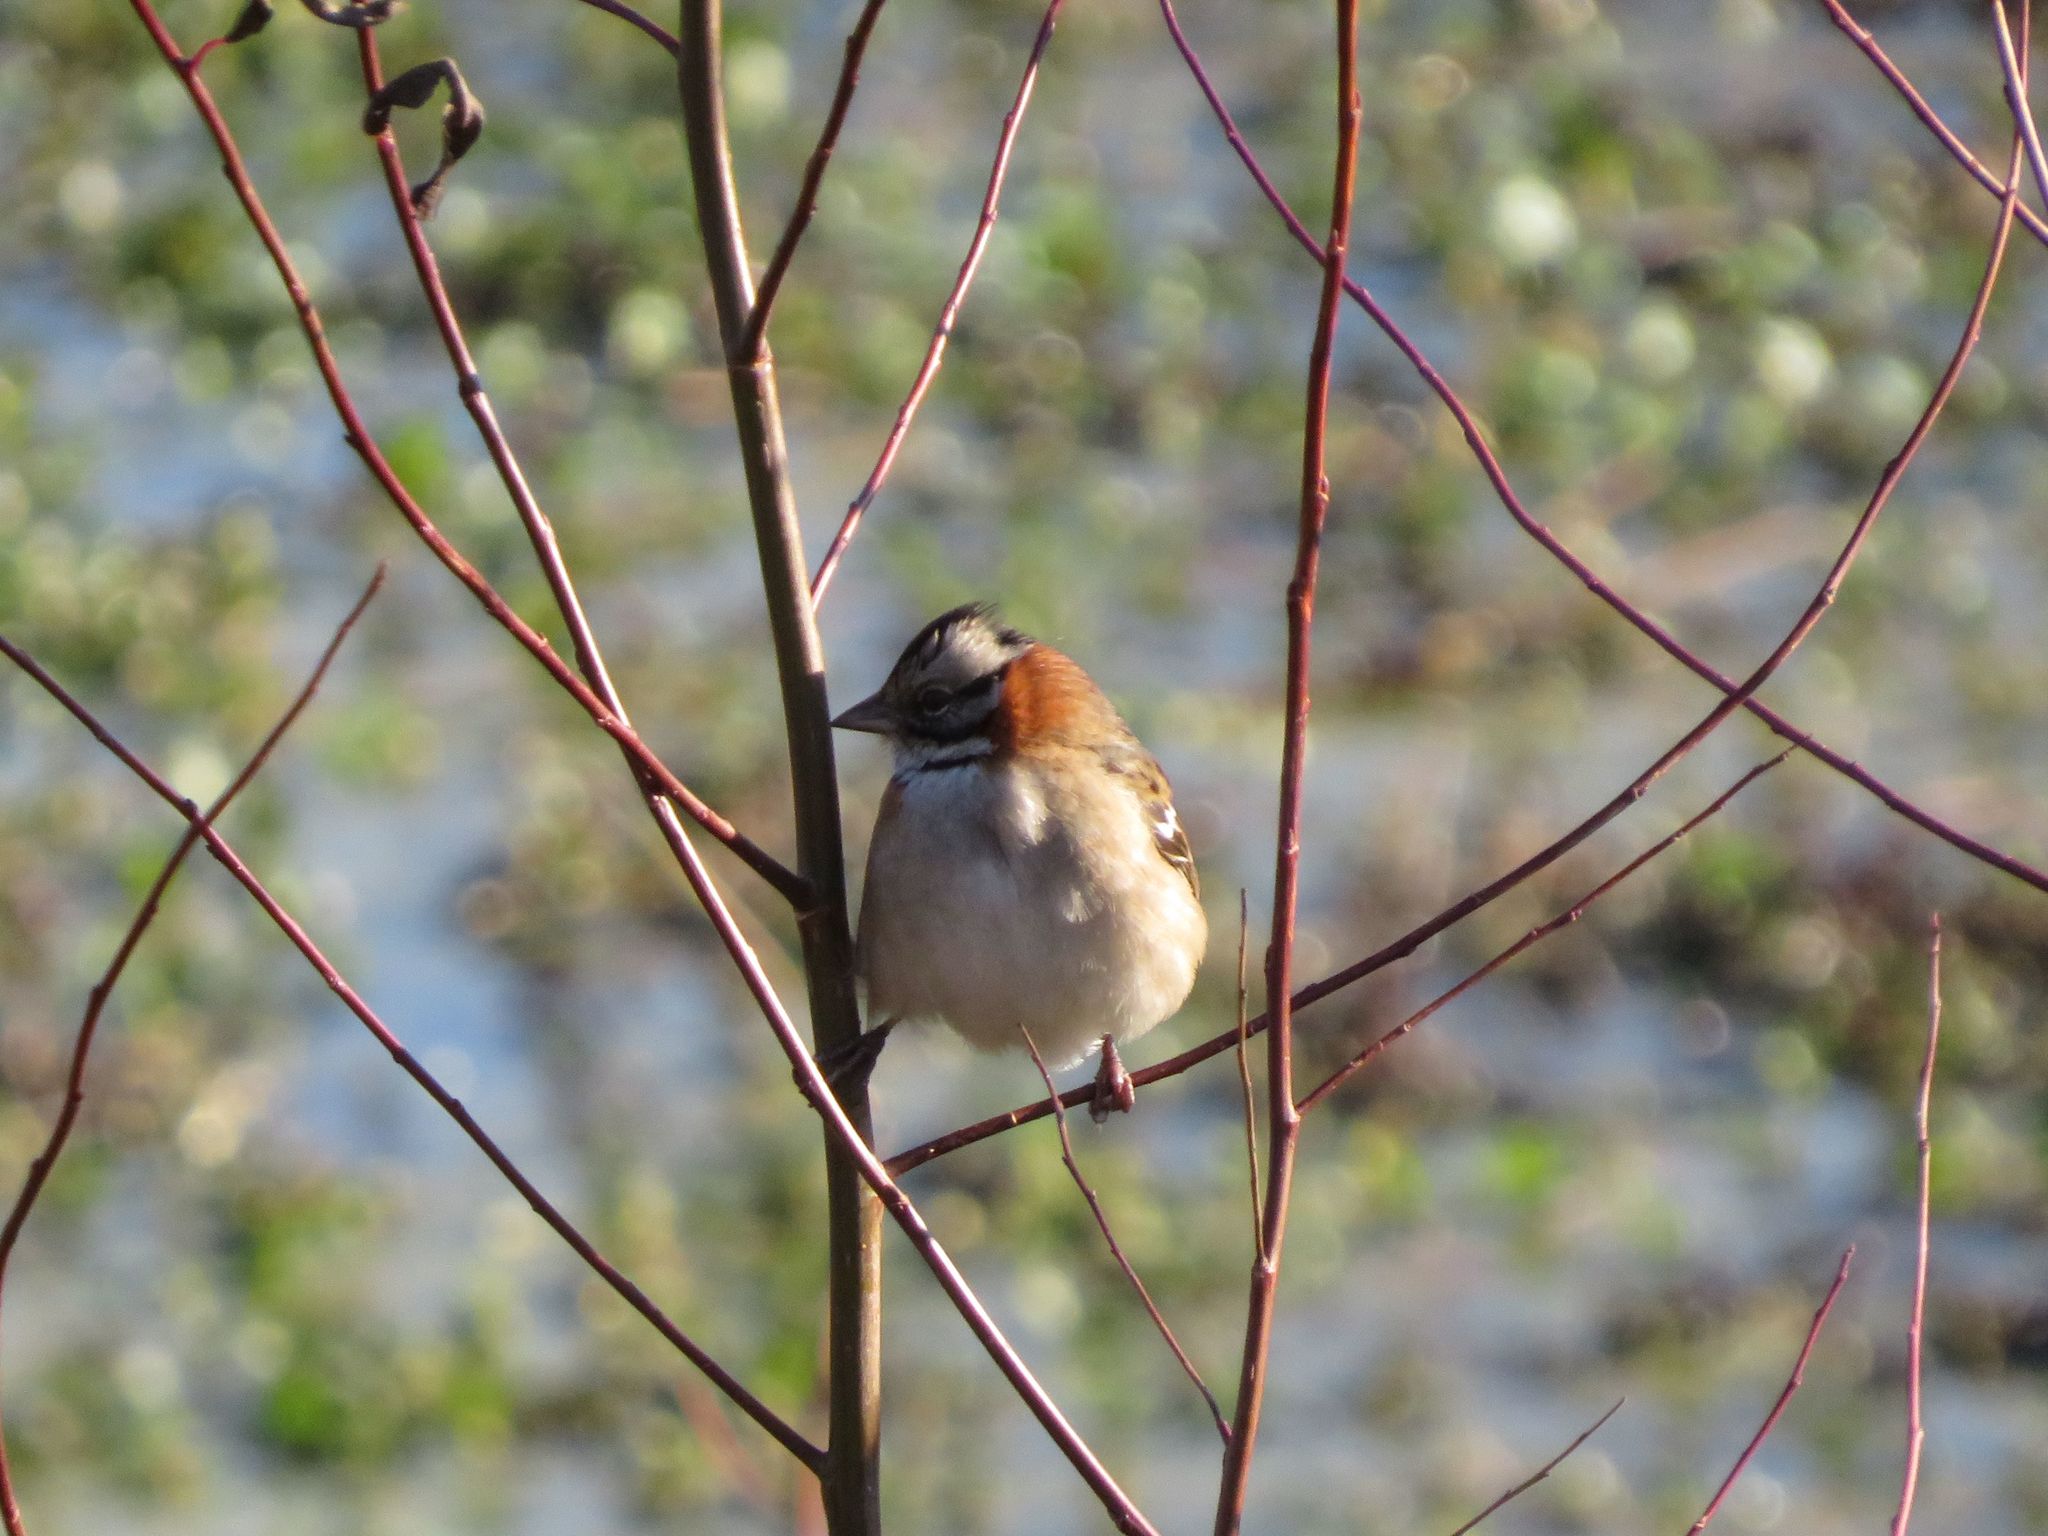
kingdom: Animalia
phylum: Chordata
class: Aves
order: Passeriformes
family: Passerellidae
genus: Zonotrichia
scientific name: Zonotrichia capensis
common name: Rufous-collared sparrow
